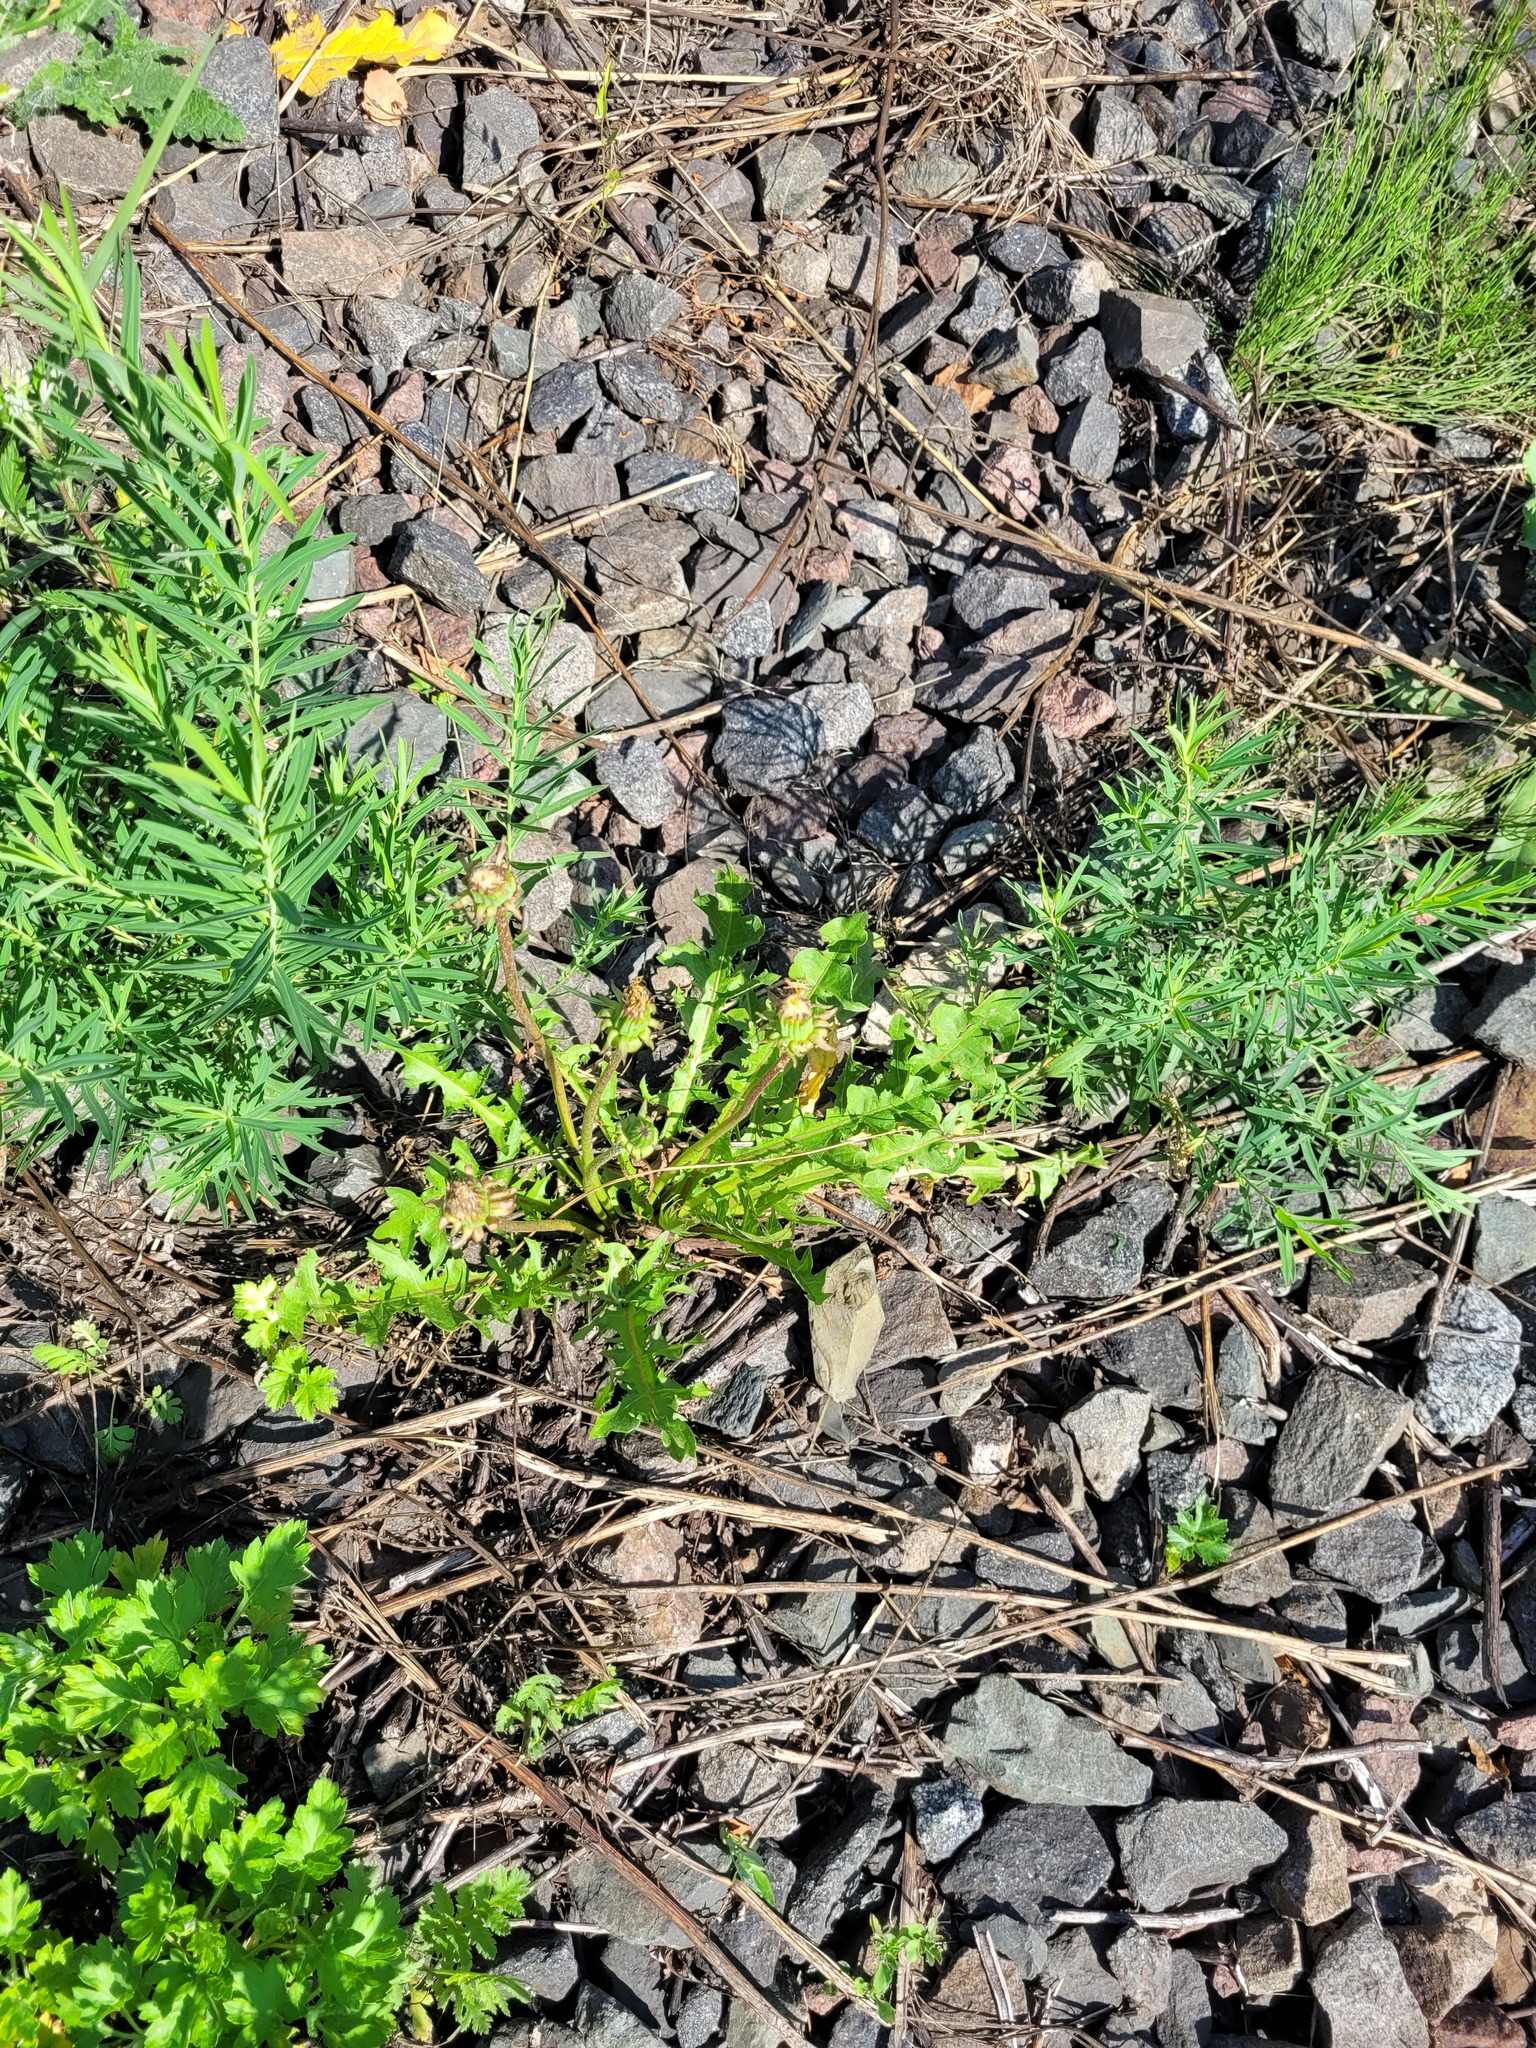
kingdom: Plantae
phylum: Tracheophyta
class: Magnoliopsida
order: Asterales
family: Asteraceae
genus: Taraxacum
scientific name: Taraxacum officinale
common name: Common dandelion
